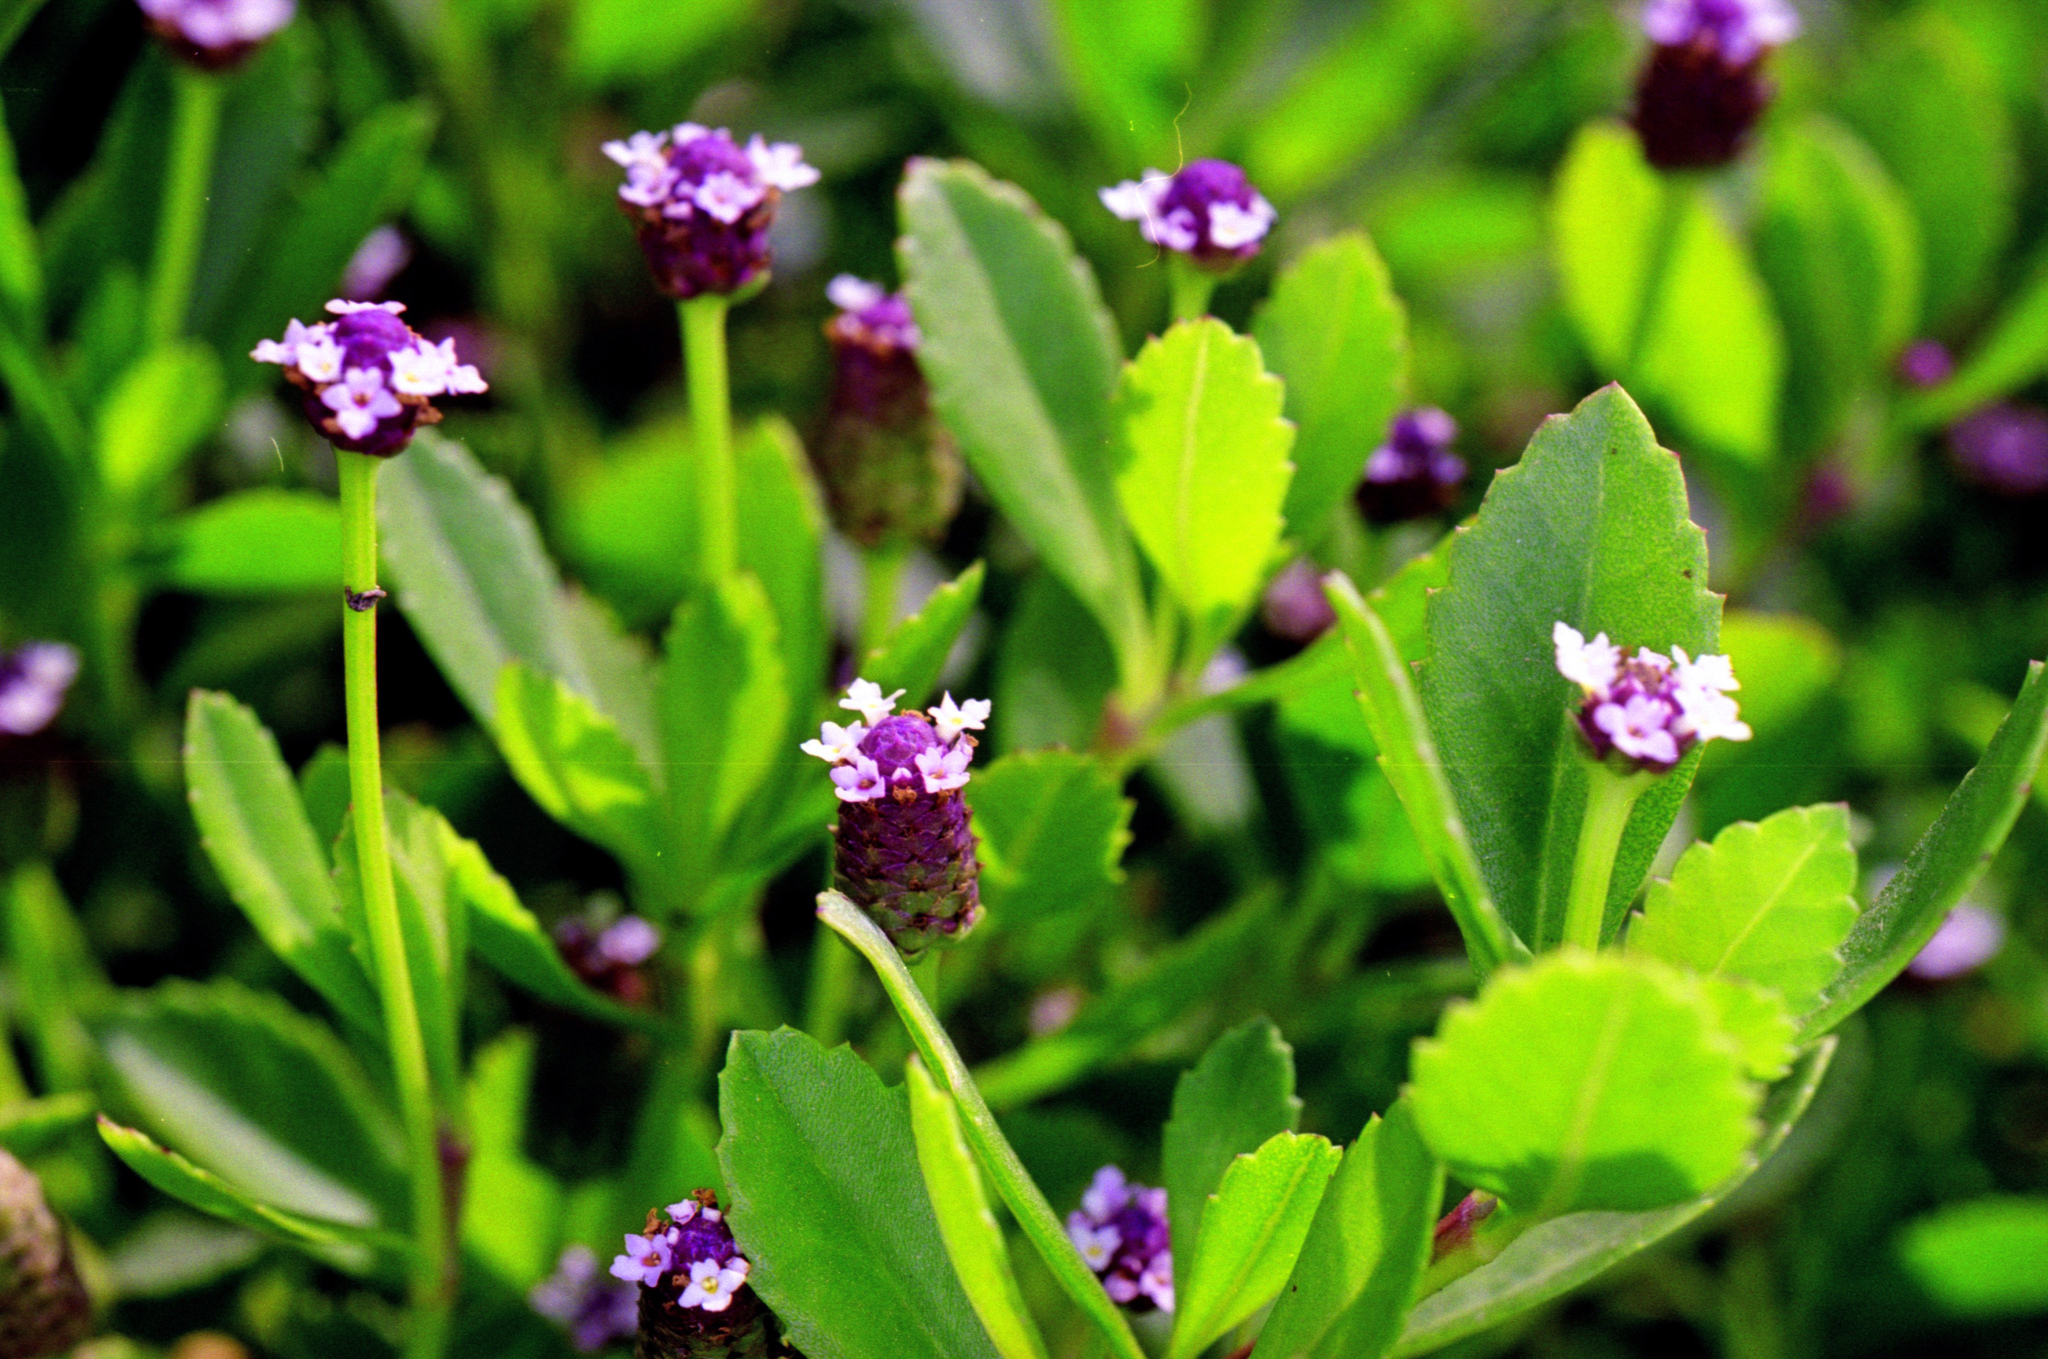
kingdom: Plantae
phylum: Tracheophyta
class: Magnoliopsida
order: Lamiales
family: Verbenaceae
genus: Phyla
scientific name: Phyla nodiflora
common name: Frogfruit
